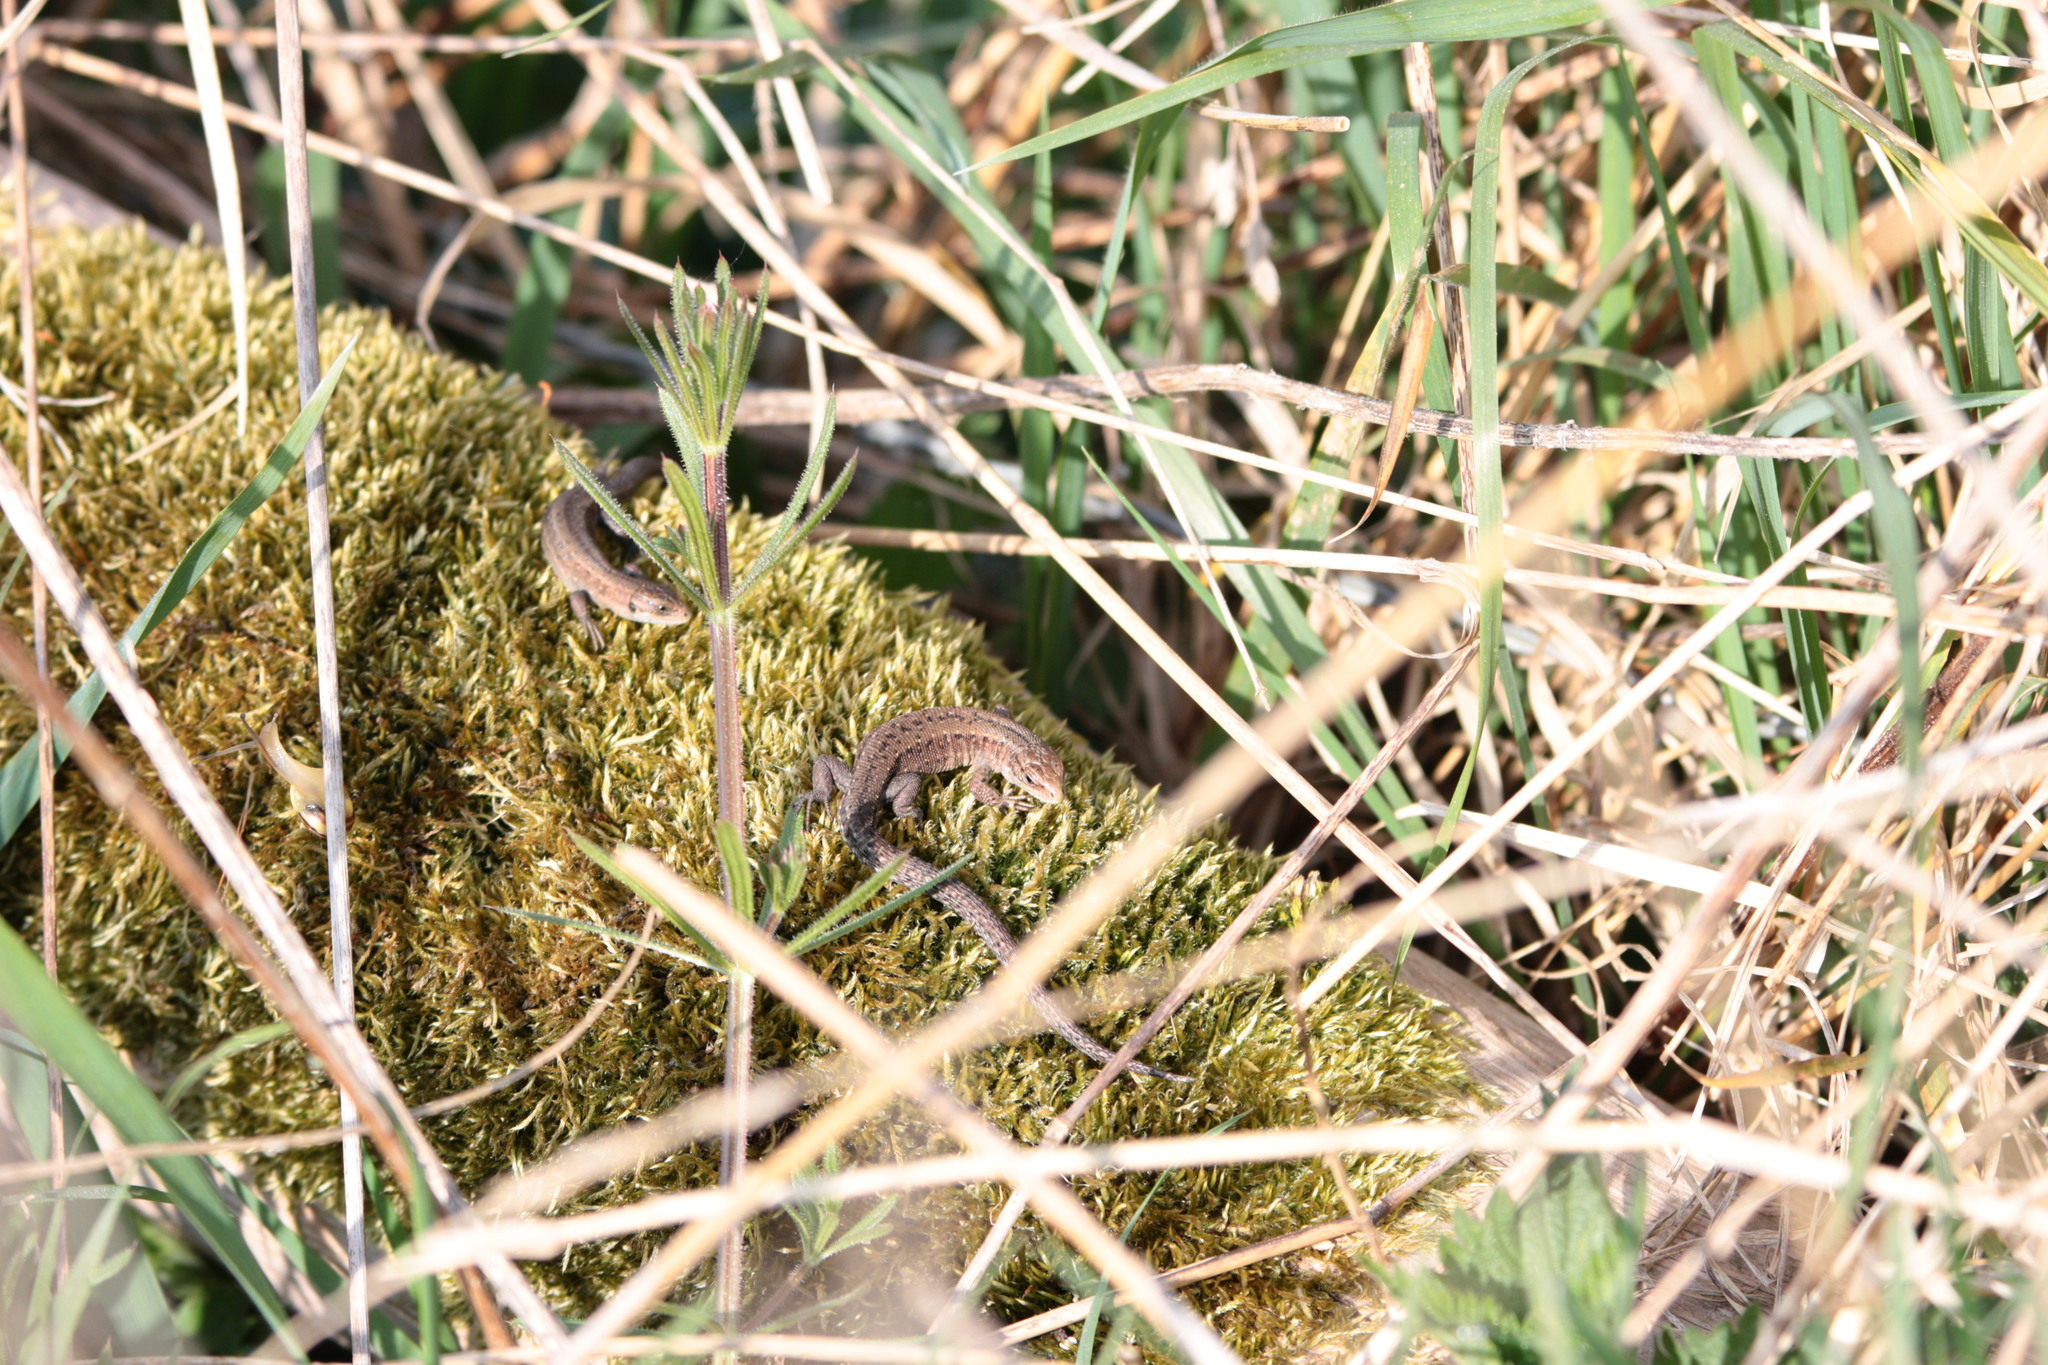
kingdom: Animalia
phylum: Chordata
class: Squamata
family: Lacertidae
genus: Zootoca
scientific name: Zootoca vivipara
